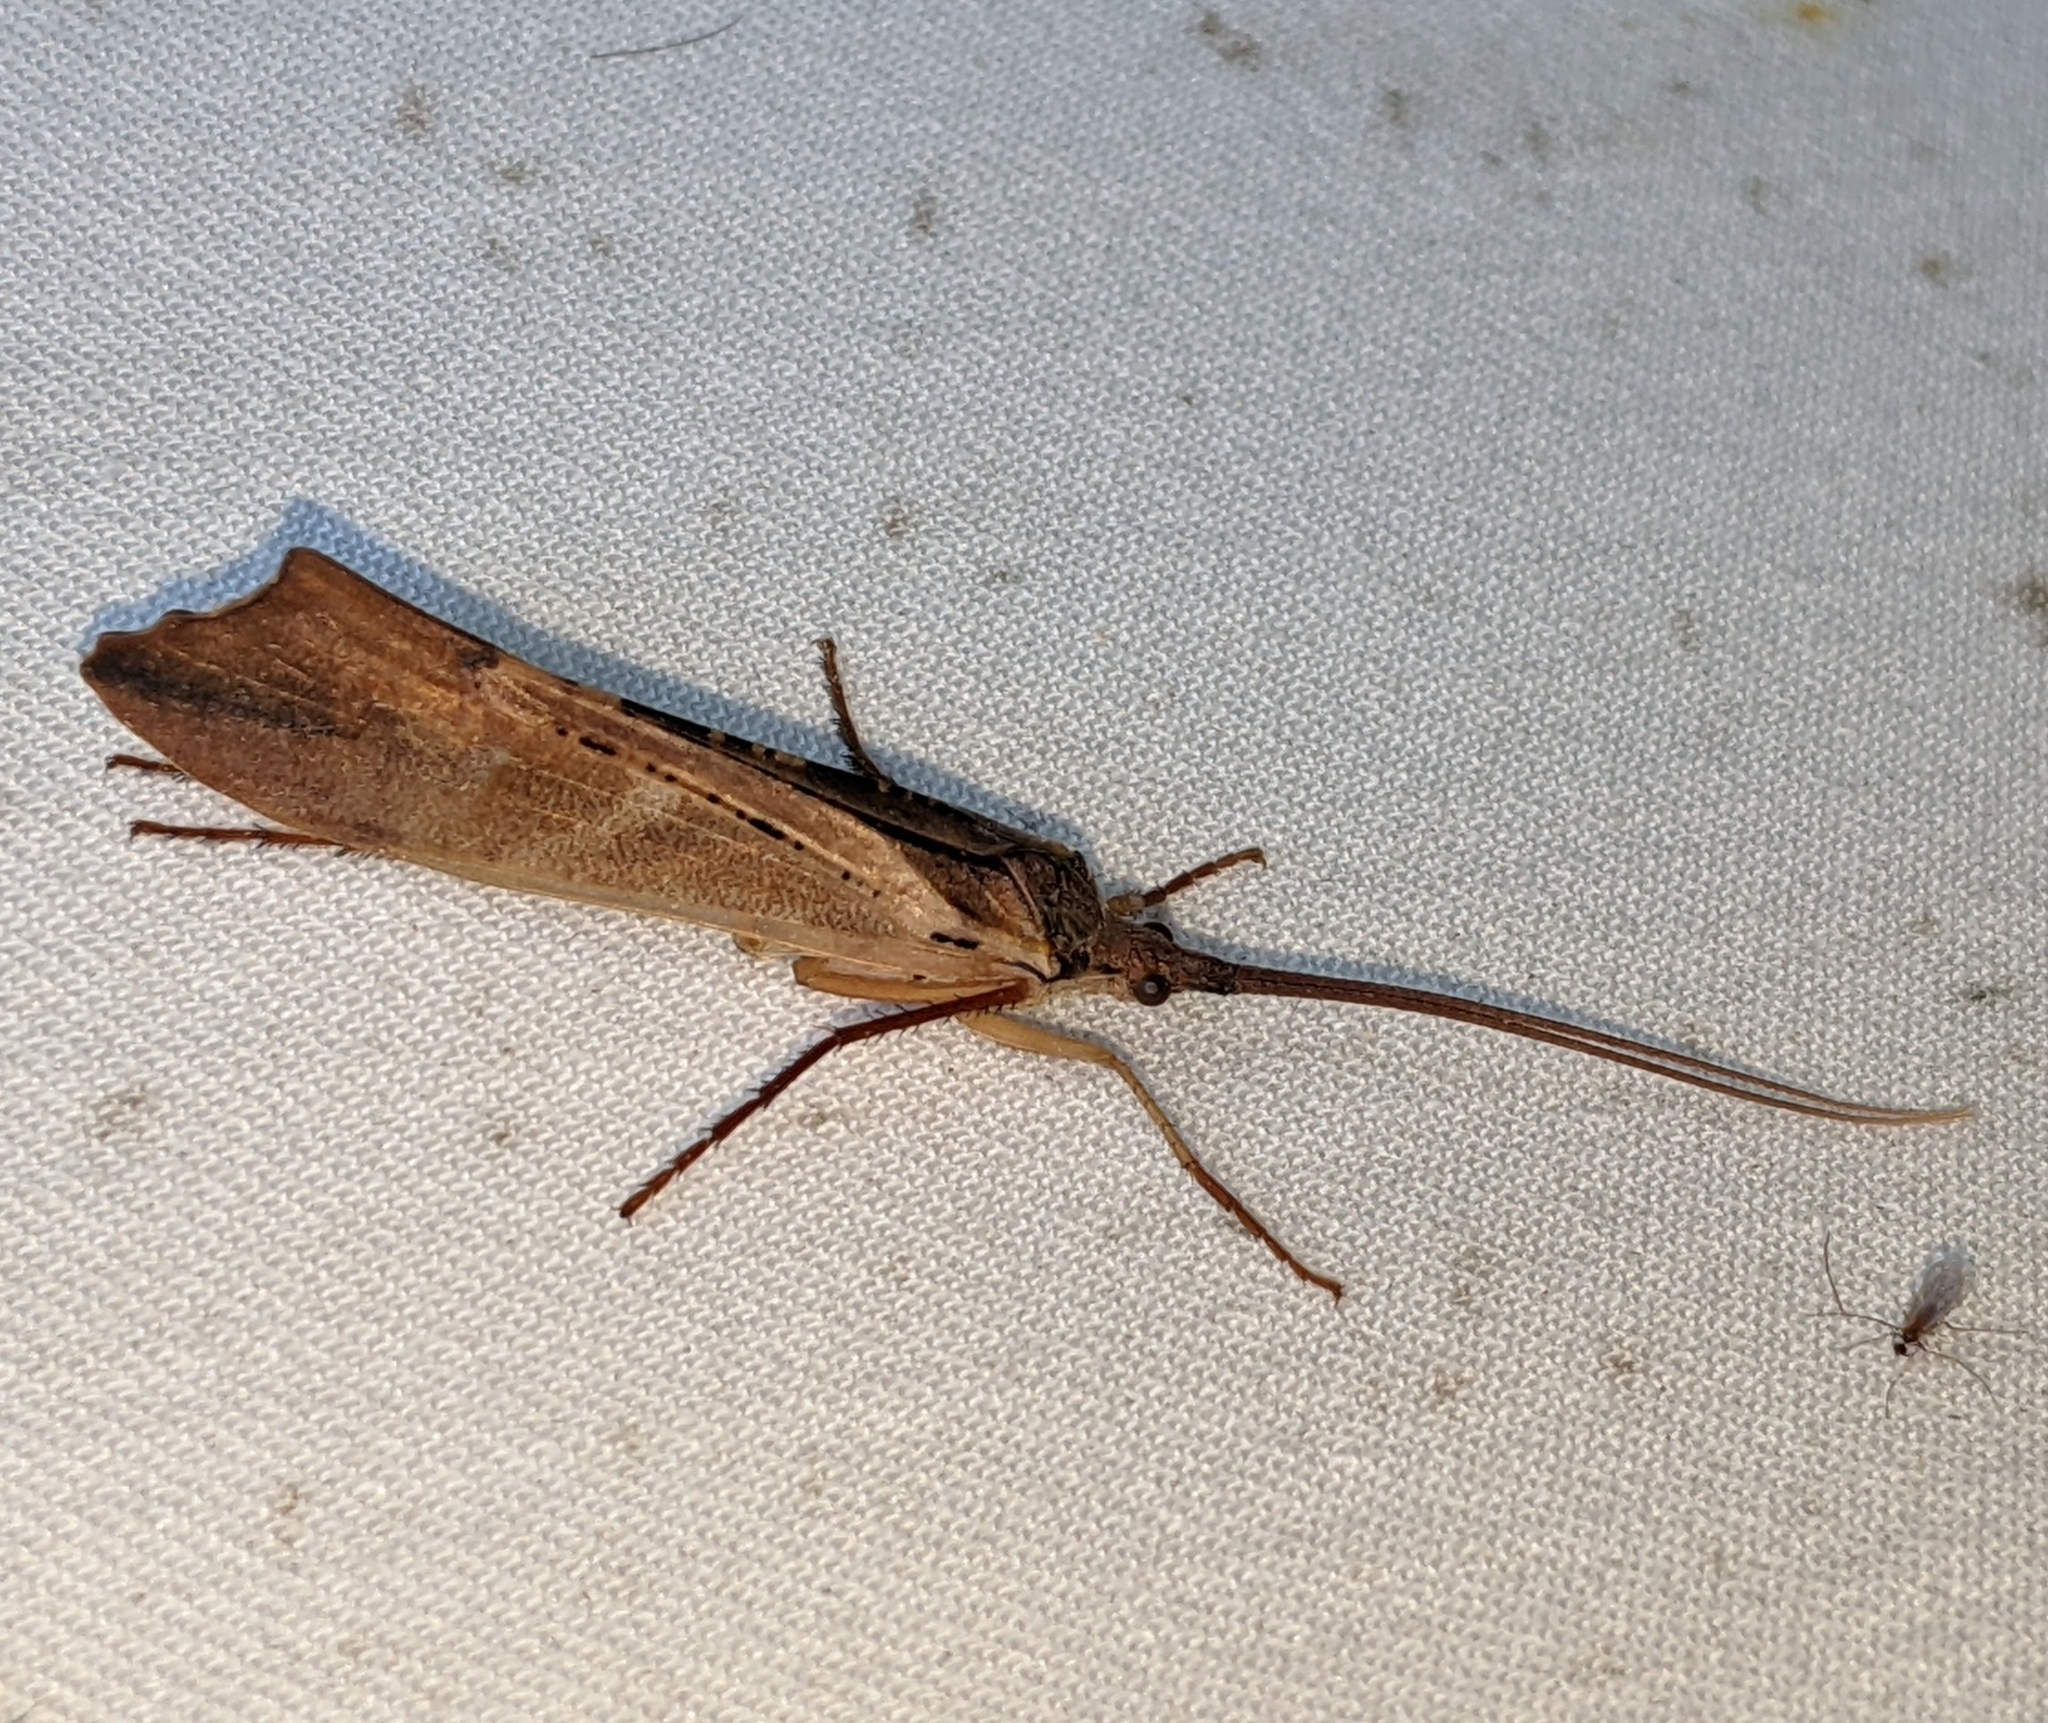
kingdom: Animalia
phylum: Arthropoda
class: Insecta
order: Trichoptera
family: Limnephilidae
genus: Nemotaulius
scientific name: Nemotaulius hostilis
